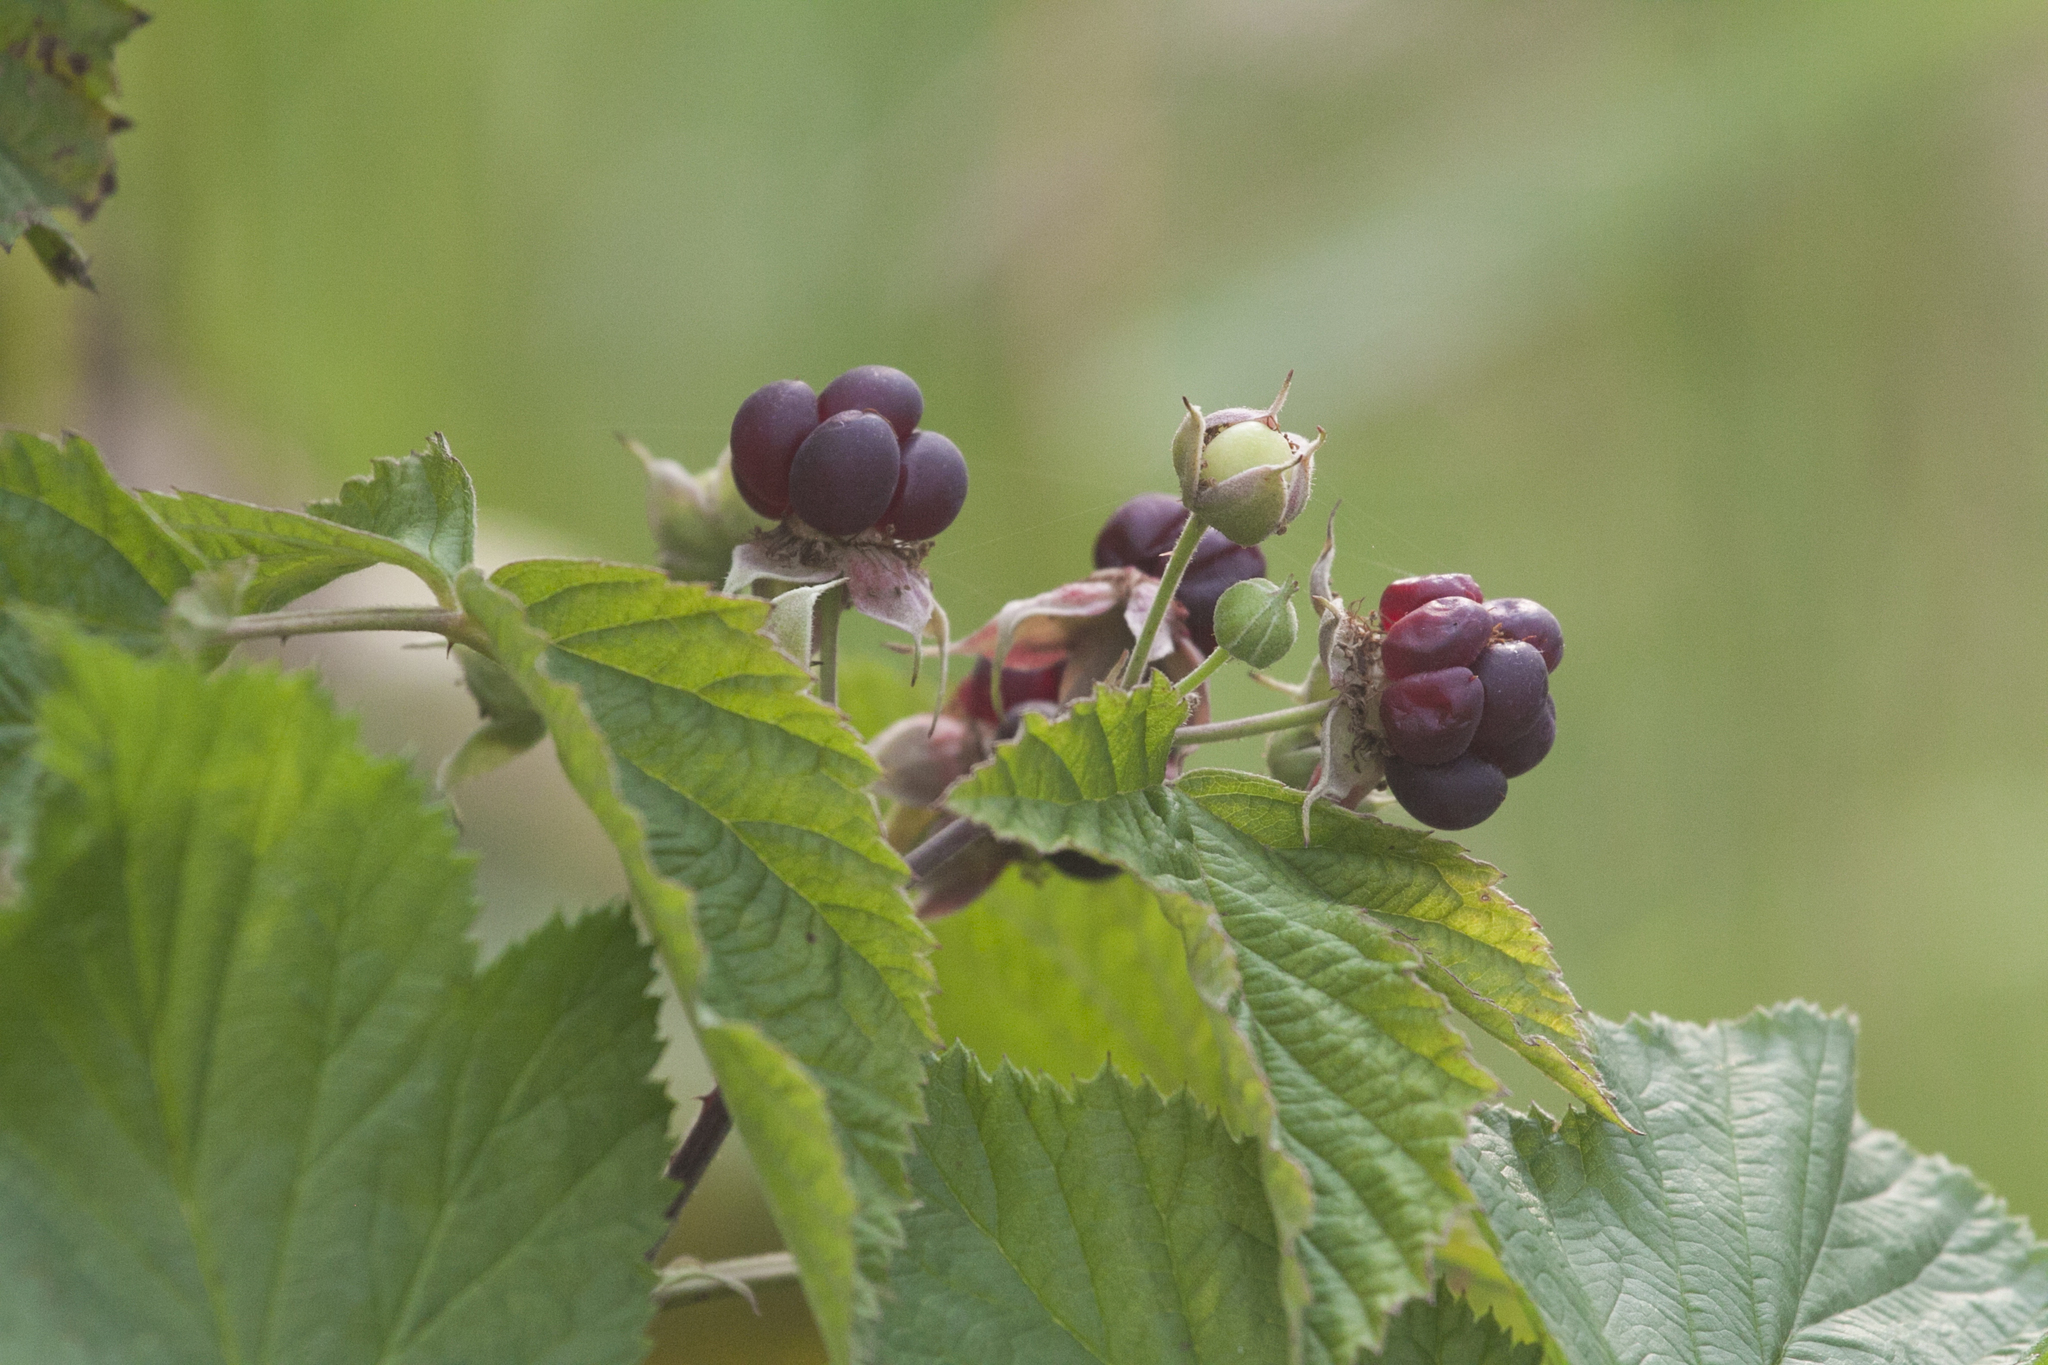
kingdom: Plantae
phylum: Tracheophyta
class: Magnoliopsida
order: Rosales
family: Rosaceae
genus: Rubus
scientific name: Rubus caesius
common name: Dewberry
